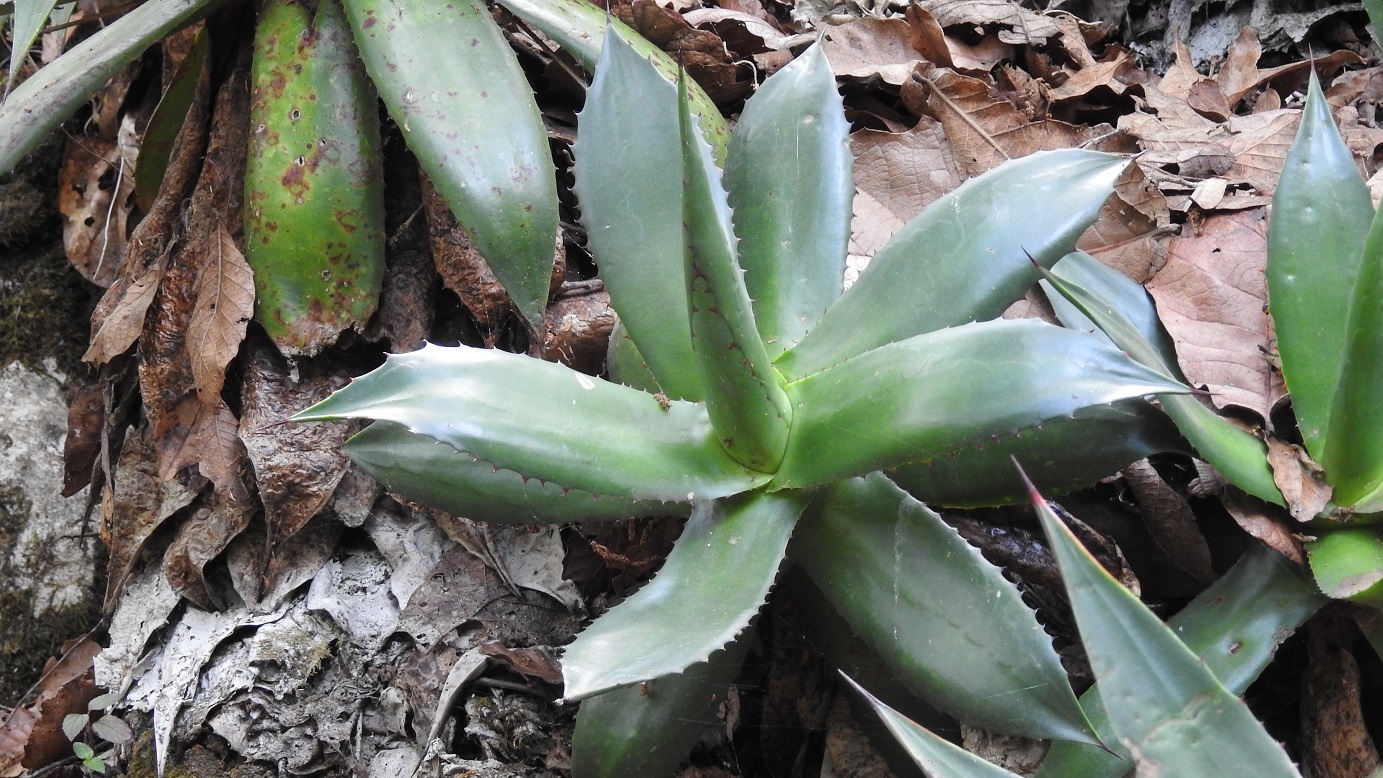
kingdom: Plantae
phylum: Tracheophyta
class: Liliopsida
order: Asparagales
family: Asparagaceae
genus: Agave
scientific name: Agave warelliana
